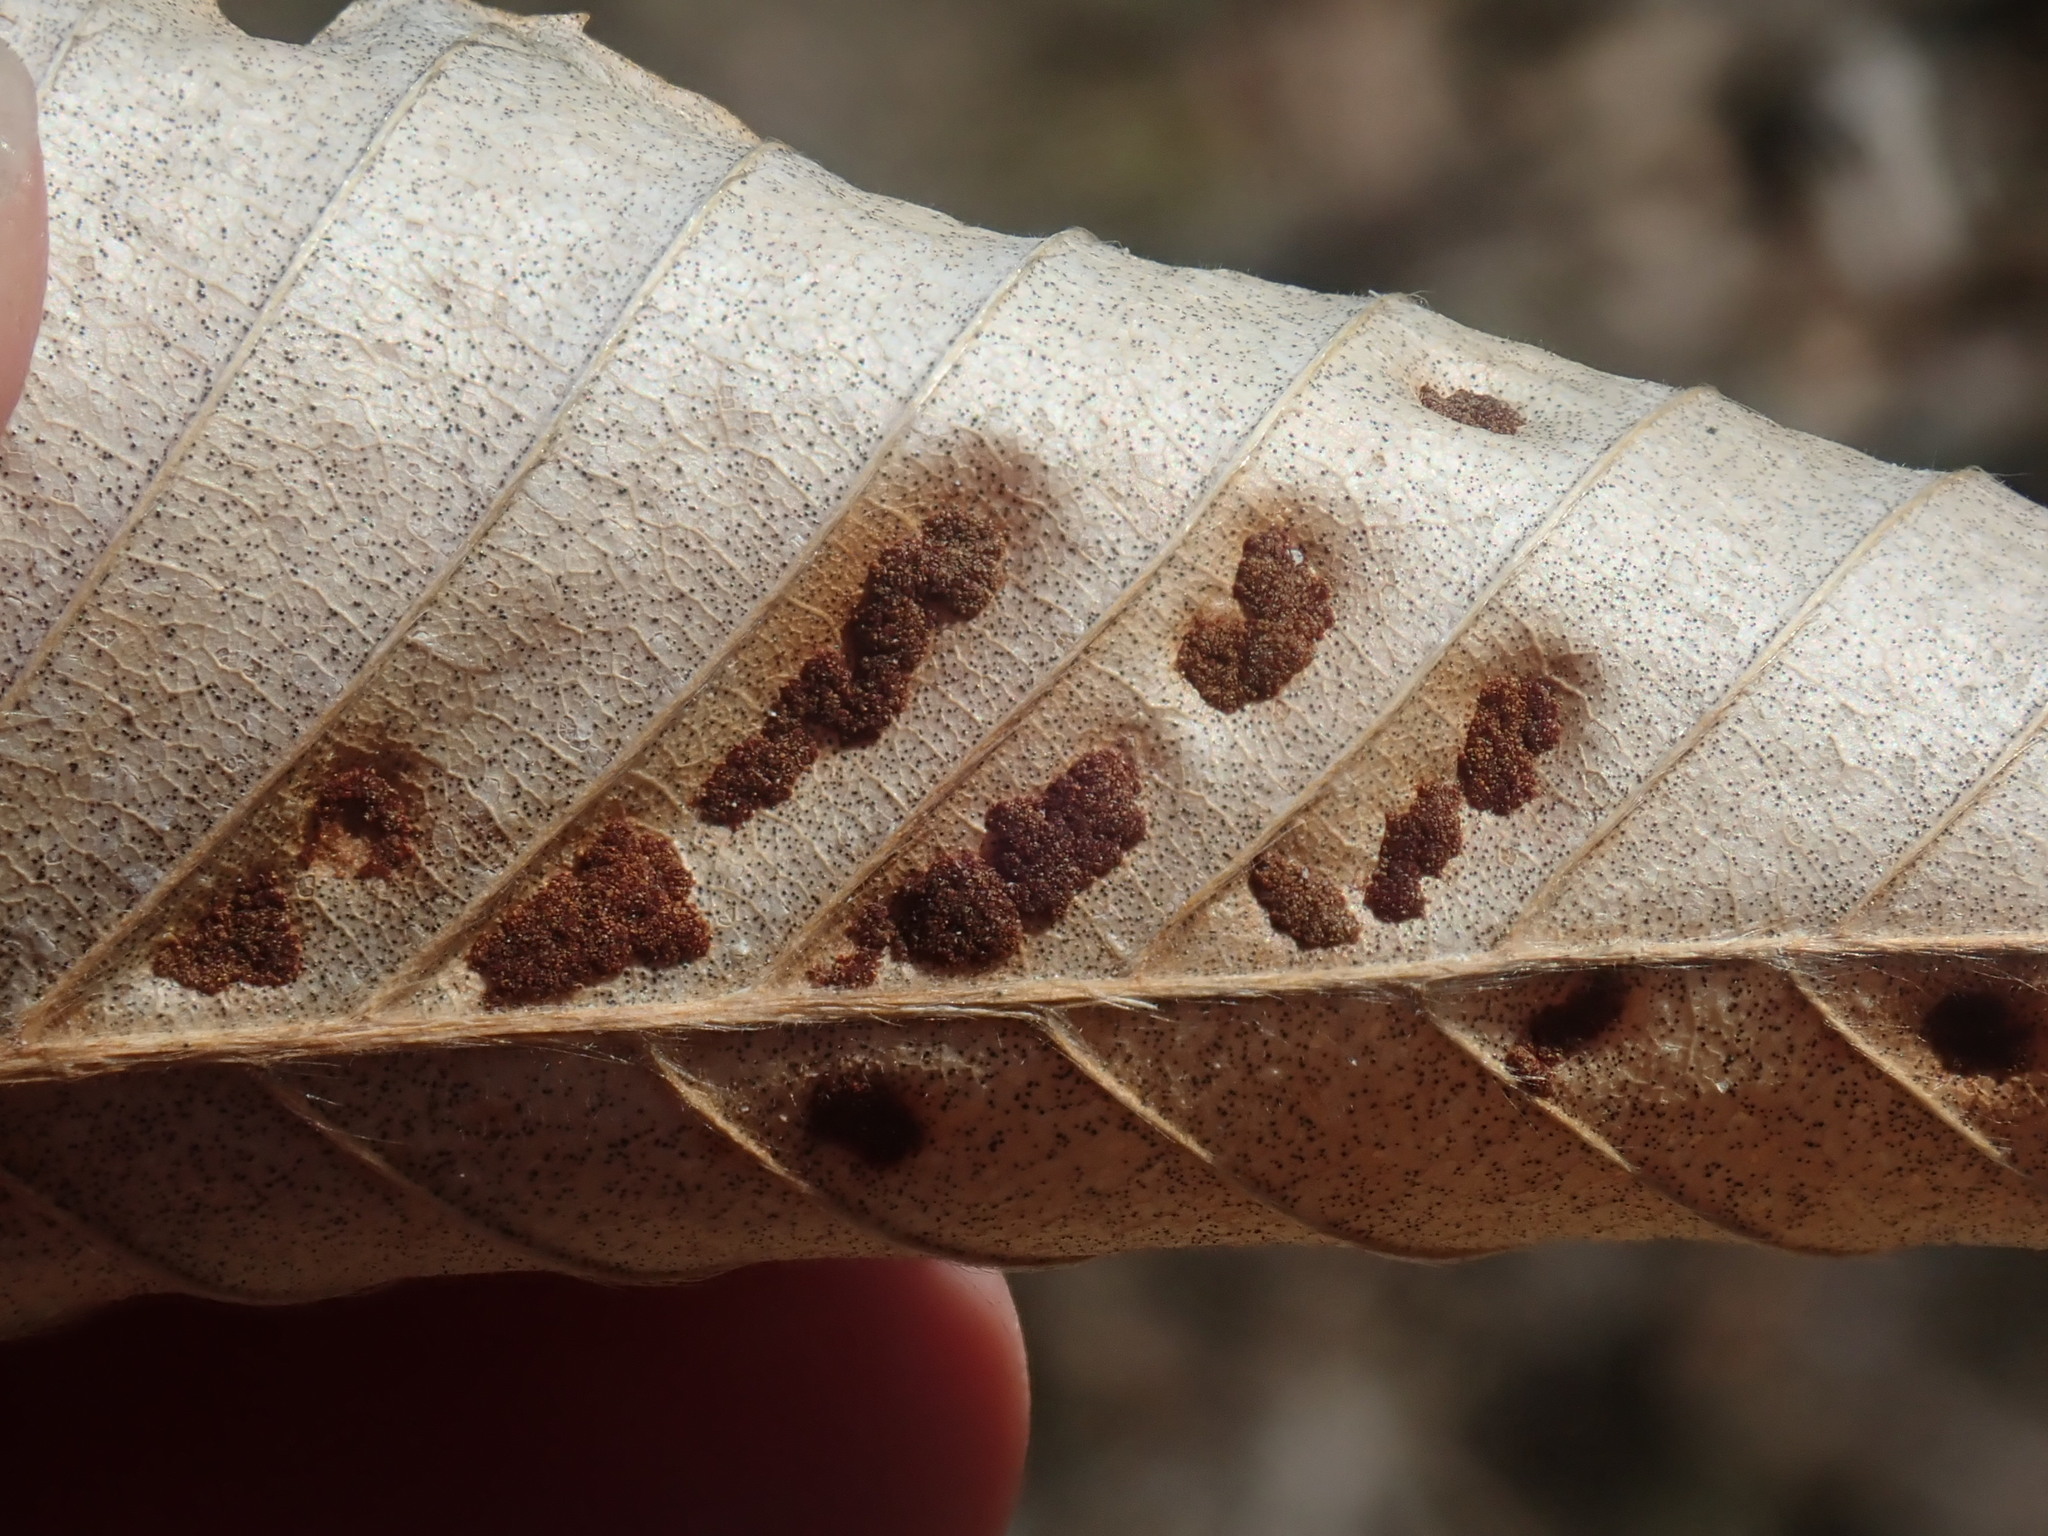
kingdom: Animalia
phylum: Arthropoda
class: Arachnida
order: Trombidiformes
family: Eriophyidae
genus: Acalitus
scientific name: Acalitus
